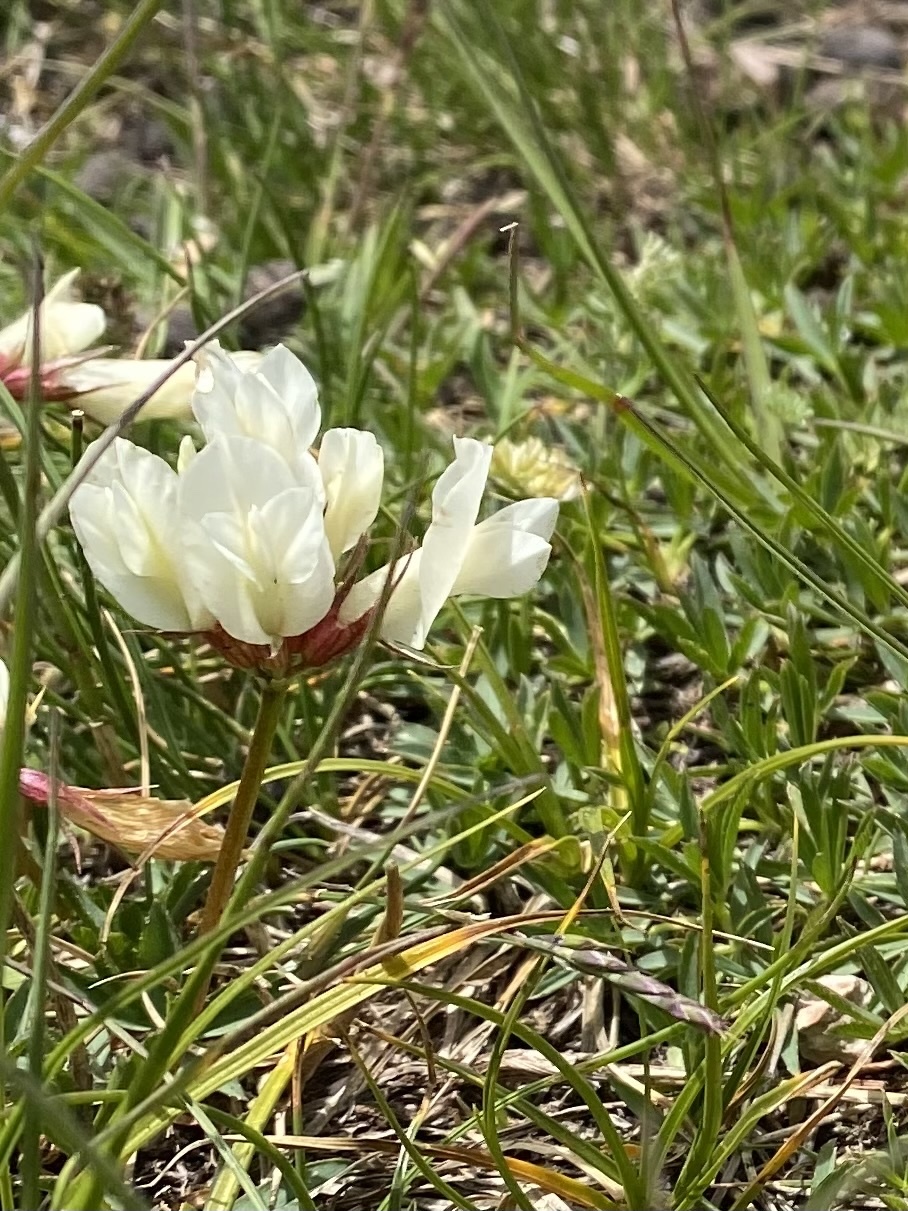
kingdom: Plantae
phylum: Tracheophyta
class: Magnoliopsida
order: Fabales
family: Fabaceae
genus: Trifolium
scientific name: Trifolium polyphyllum
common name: Many-leaf clover
